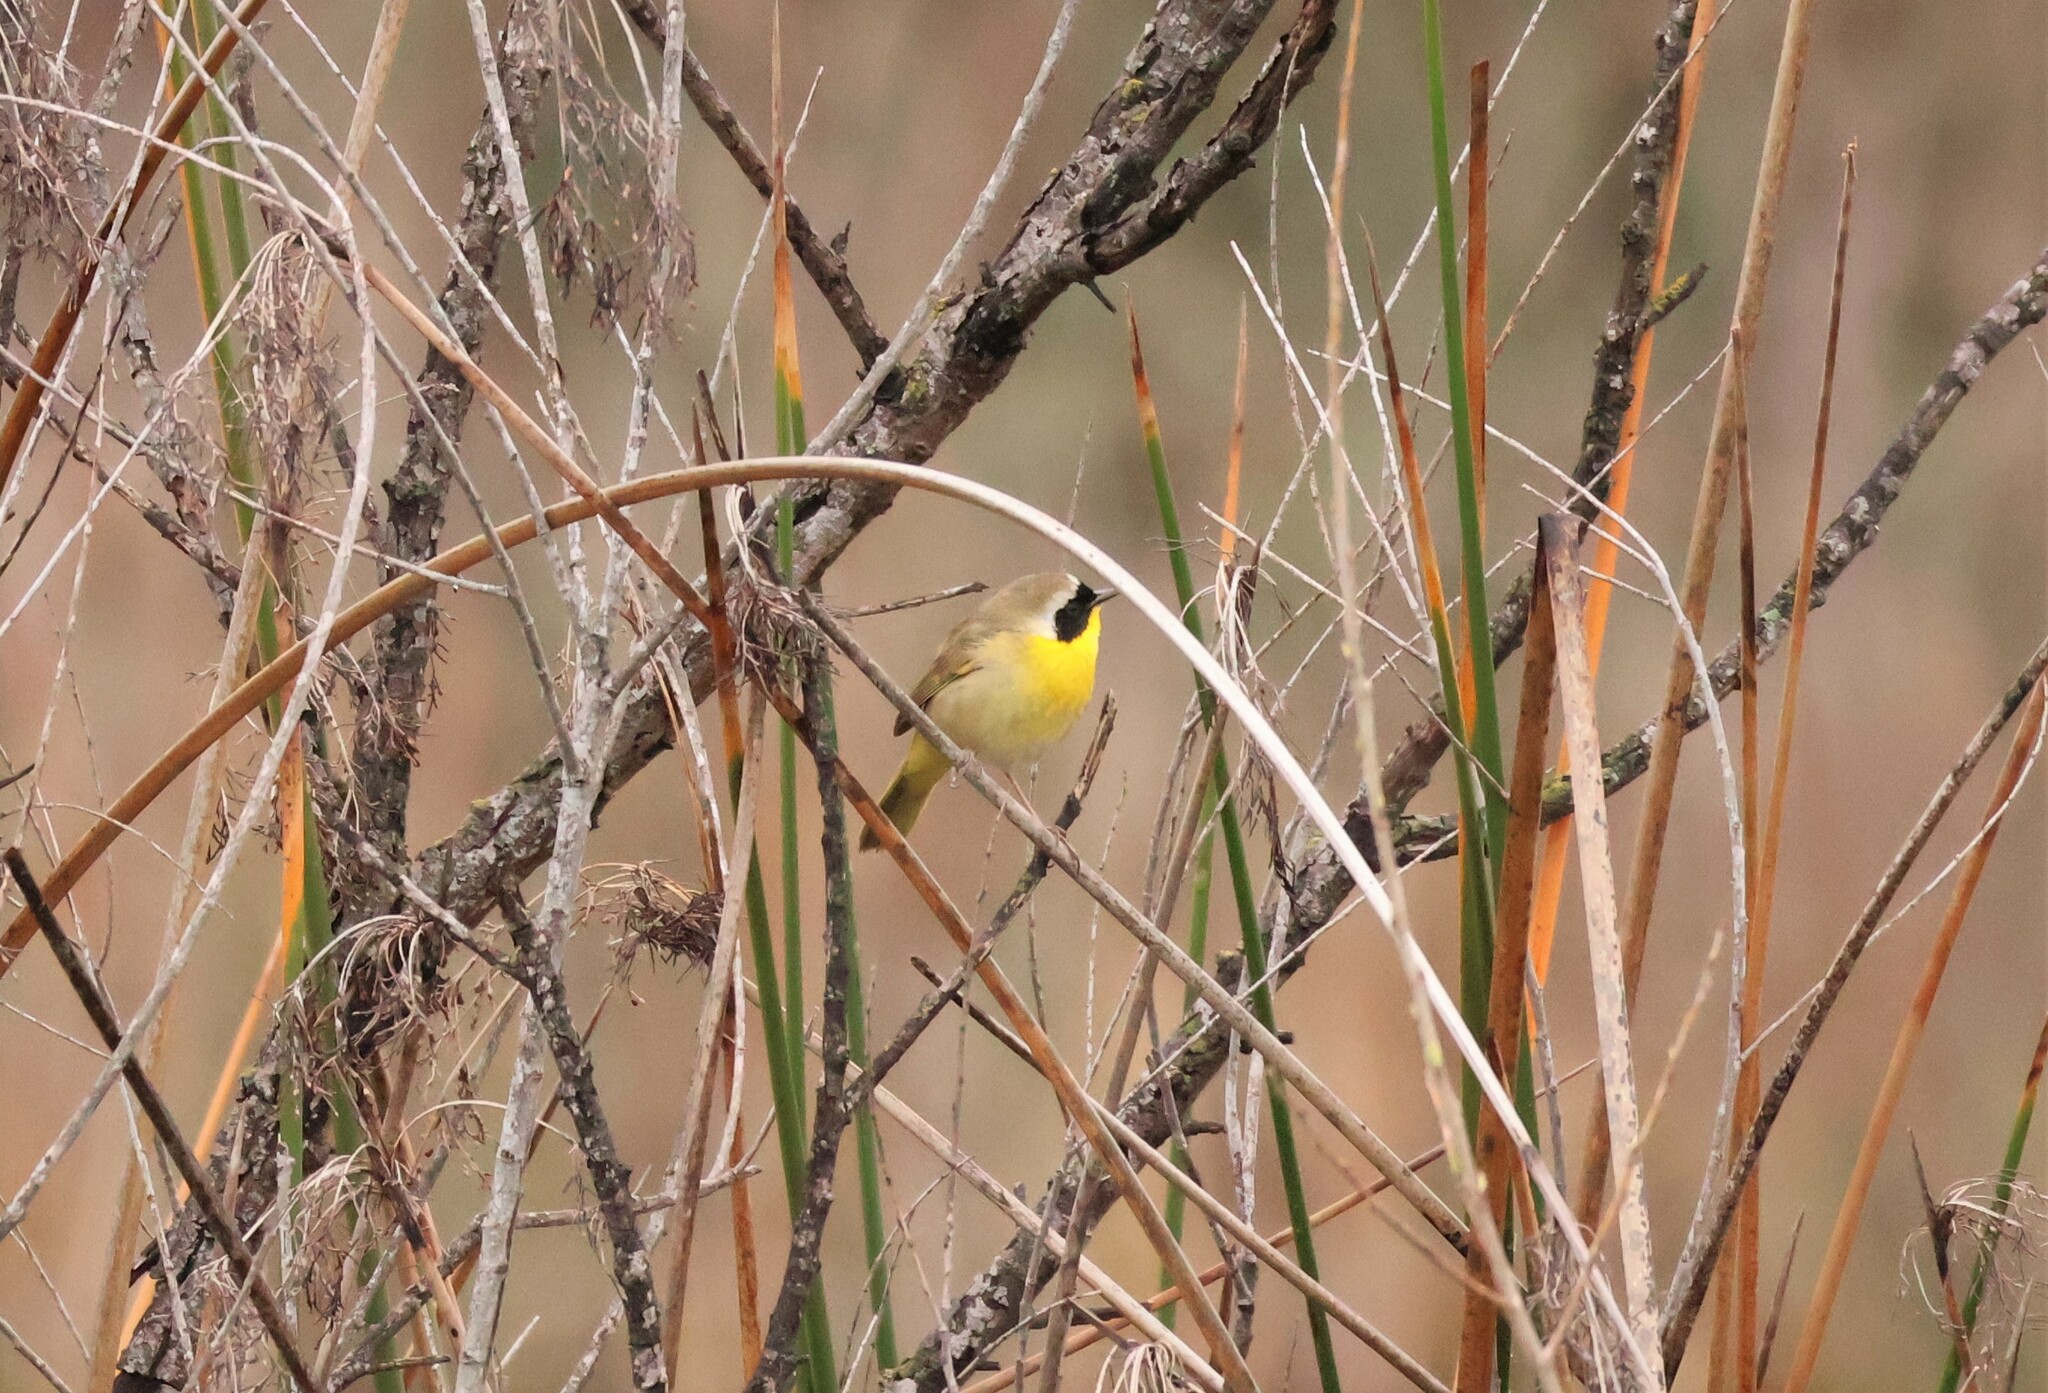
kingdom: Animalia
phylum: Chordata
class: Aves
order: Passeriformes
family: Parulidae
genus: Geothlypis
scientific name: Geothlypis trichas
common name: Common yellowthroat
